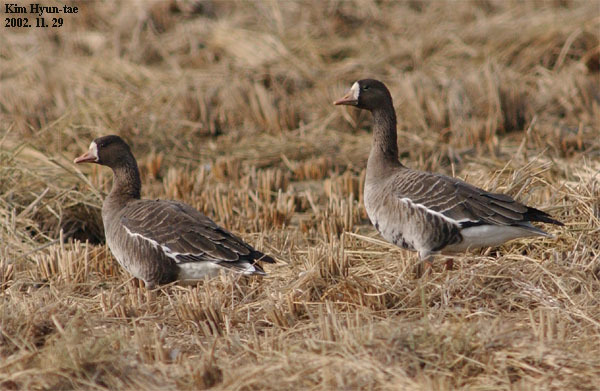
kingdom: Animalia
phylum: Chordata
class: Aves
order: Anseriformes
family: Anatidae
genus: Anser
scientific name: Anser albifrons
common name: Greater white-fronted goose
